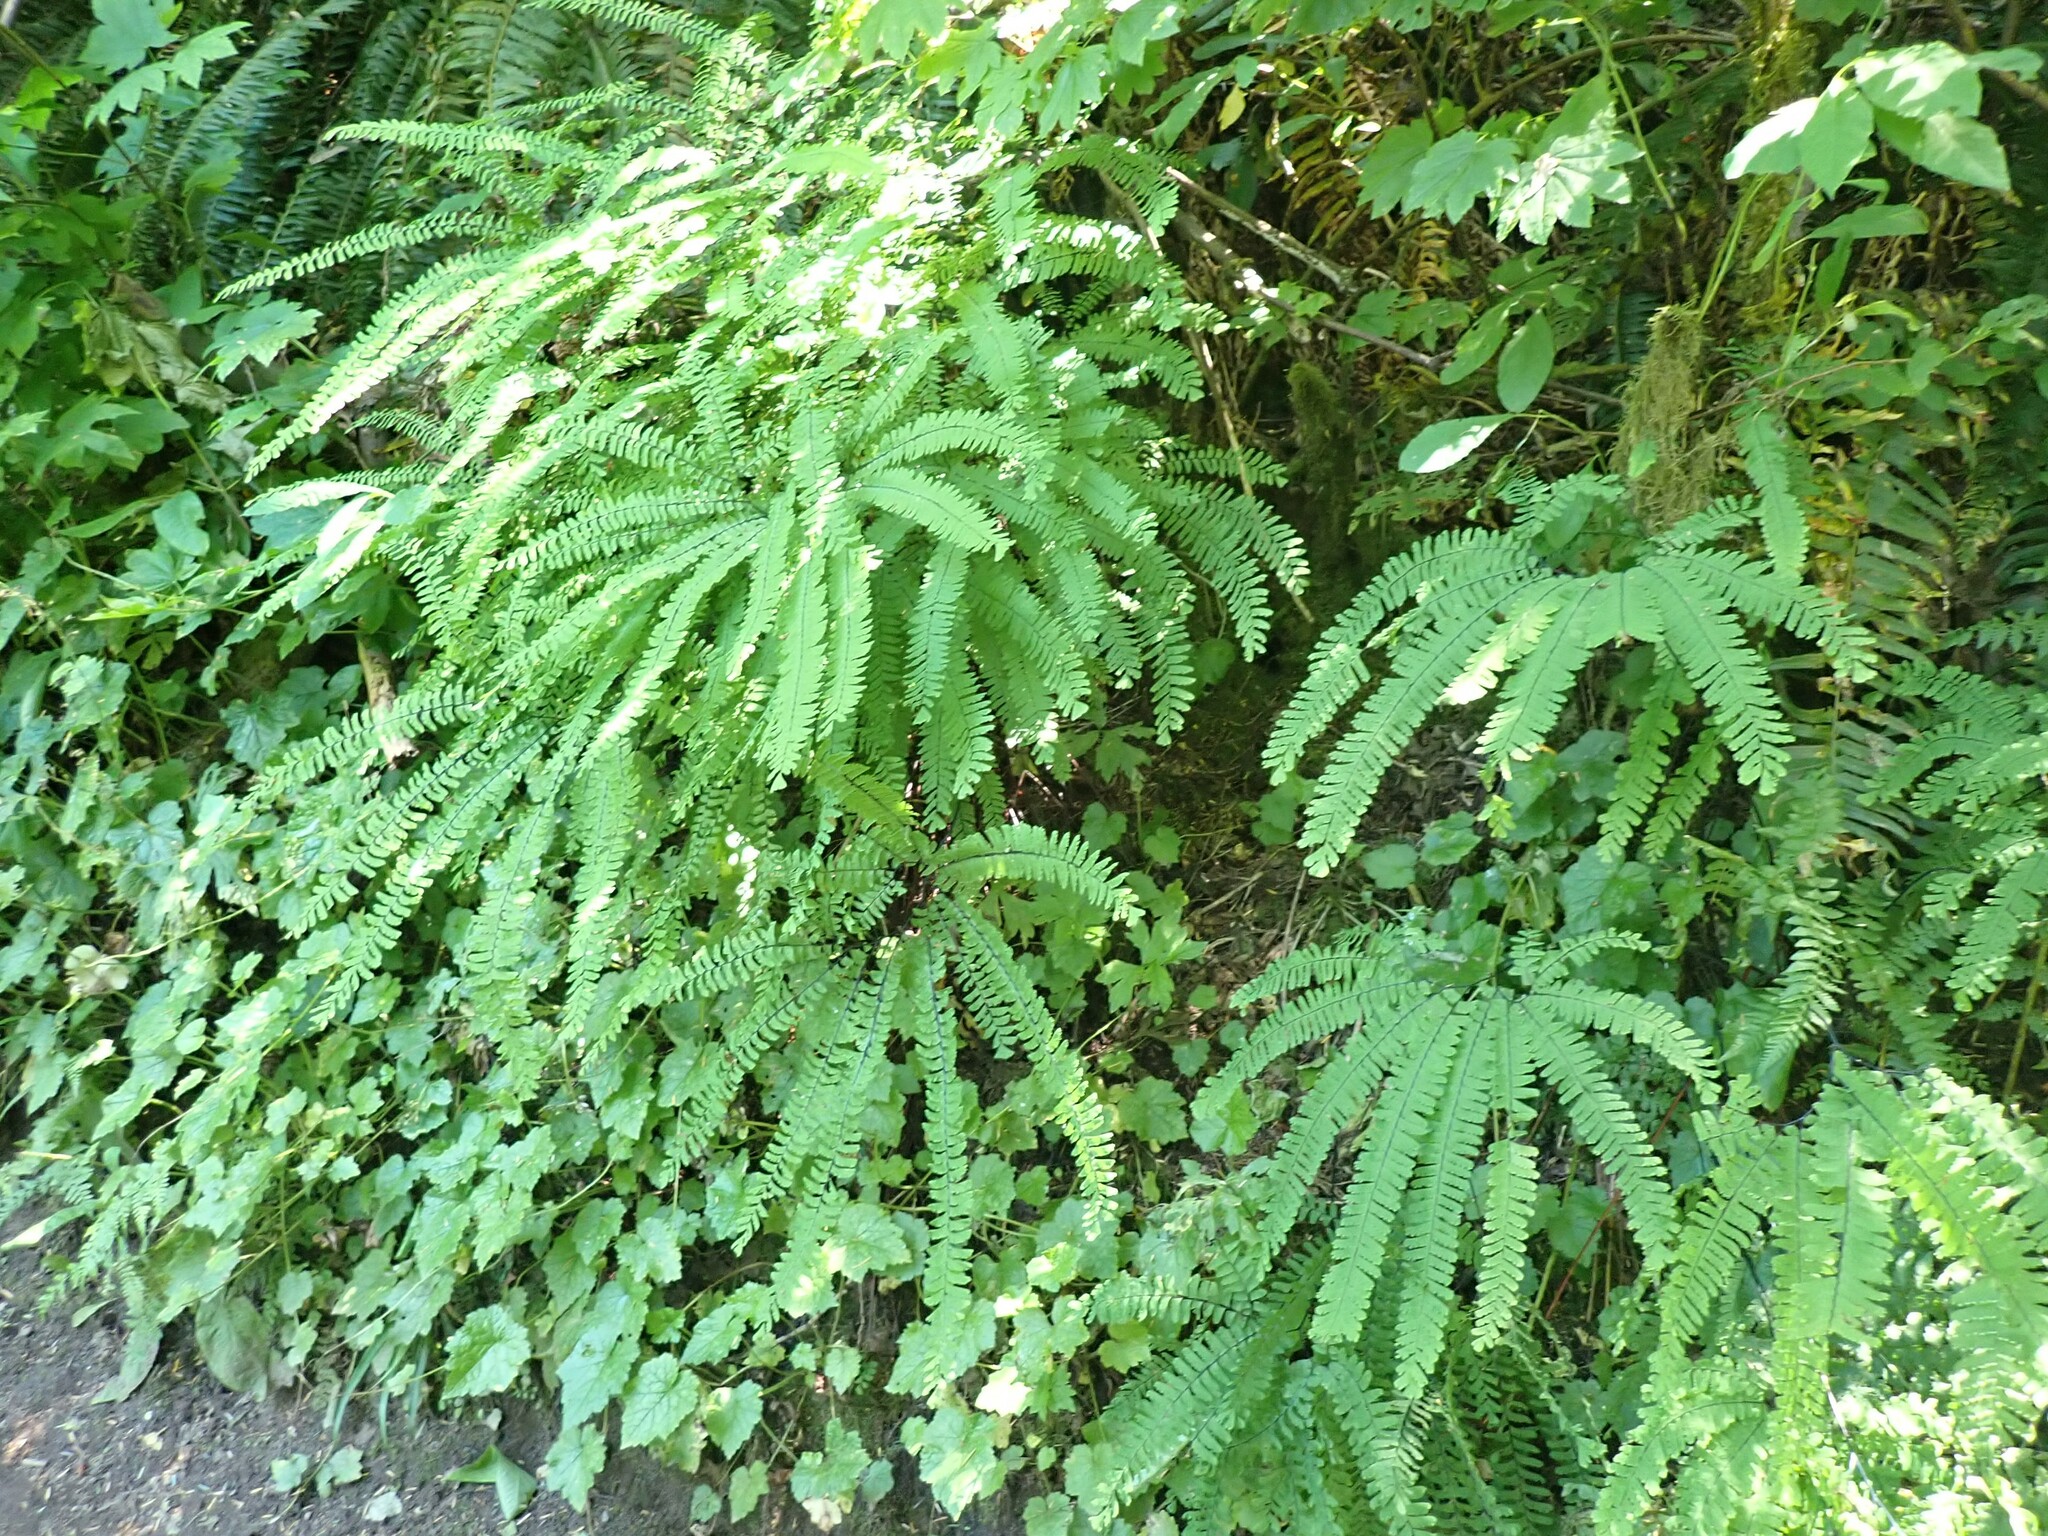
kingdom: Plantae
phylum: Tracheophyta
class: Polypodiopsida
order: Polypodiales
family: Pteridaceae
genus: Adiantum
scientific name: Adiantum aleuticum
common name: Aleutian maidenhair fern
